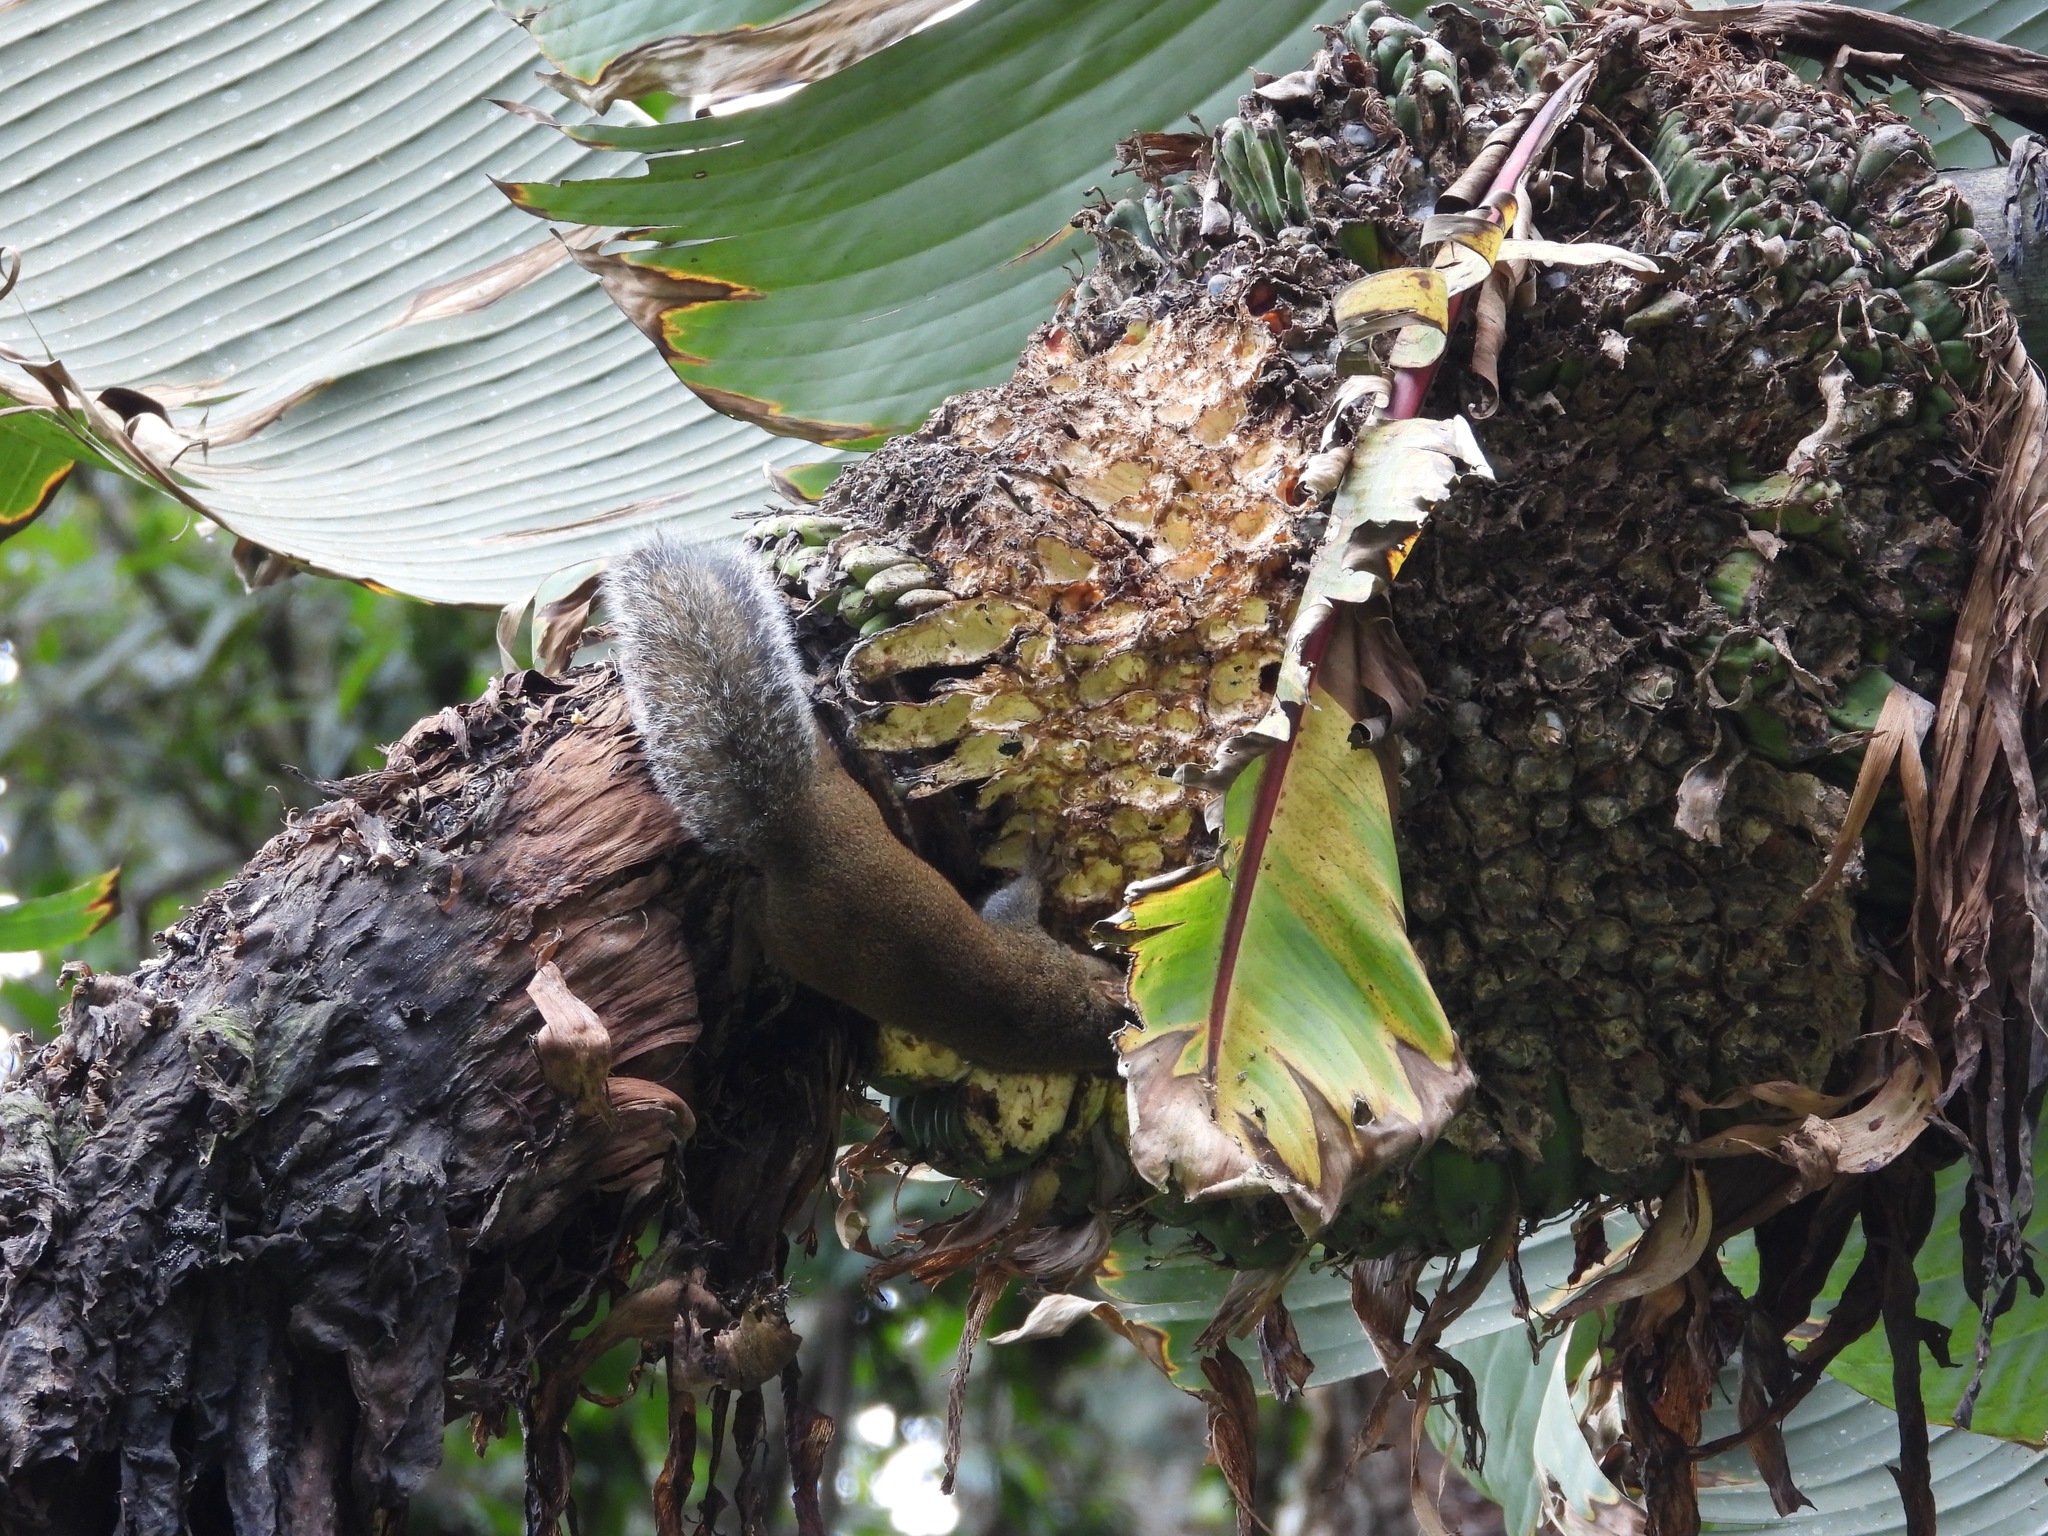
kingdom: Animalia
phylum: Chordata
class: Mammalia
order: Rodentia
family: Sciuridae
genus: Sciurus
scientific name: Sciurus deppei
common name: Deppe's squirrel
